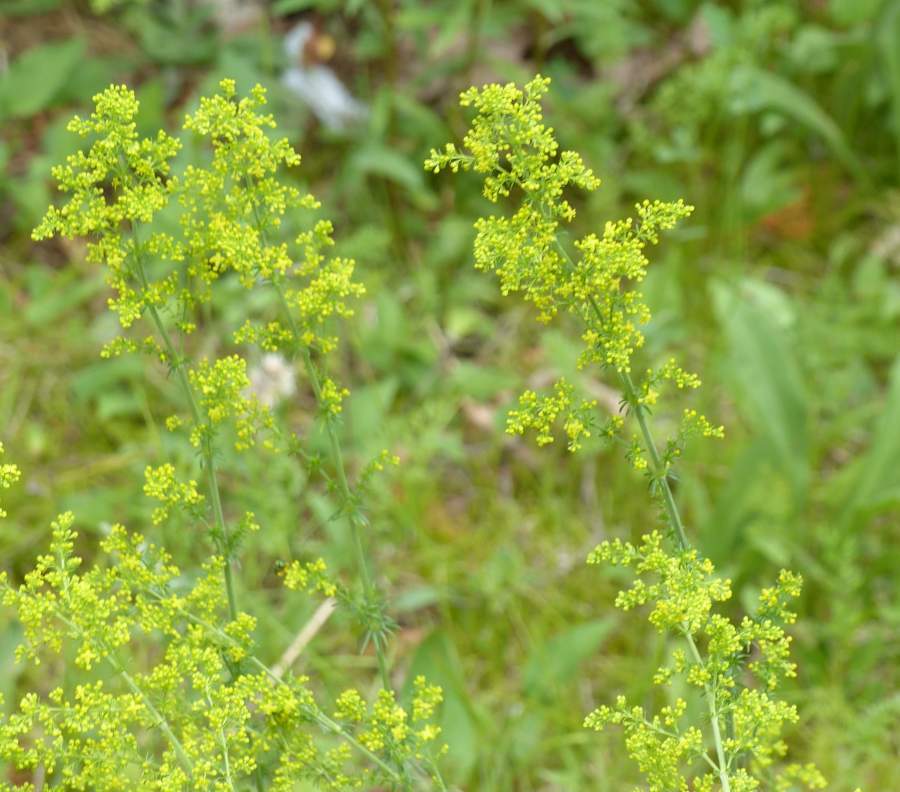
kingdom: Plantae
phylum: Tracheophyta
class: Magnoliopsida
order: Gentianales
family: Rubiaceae
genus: Galium
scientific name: Galium verum
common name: Lady's bedstraw
